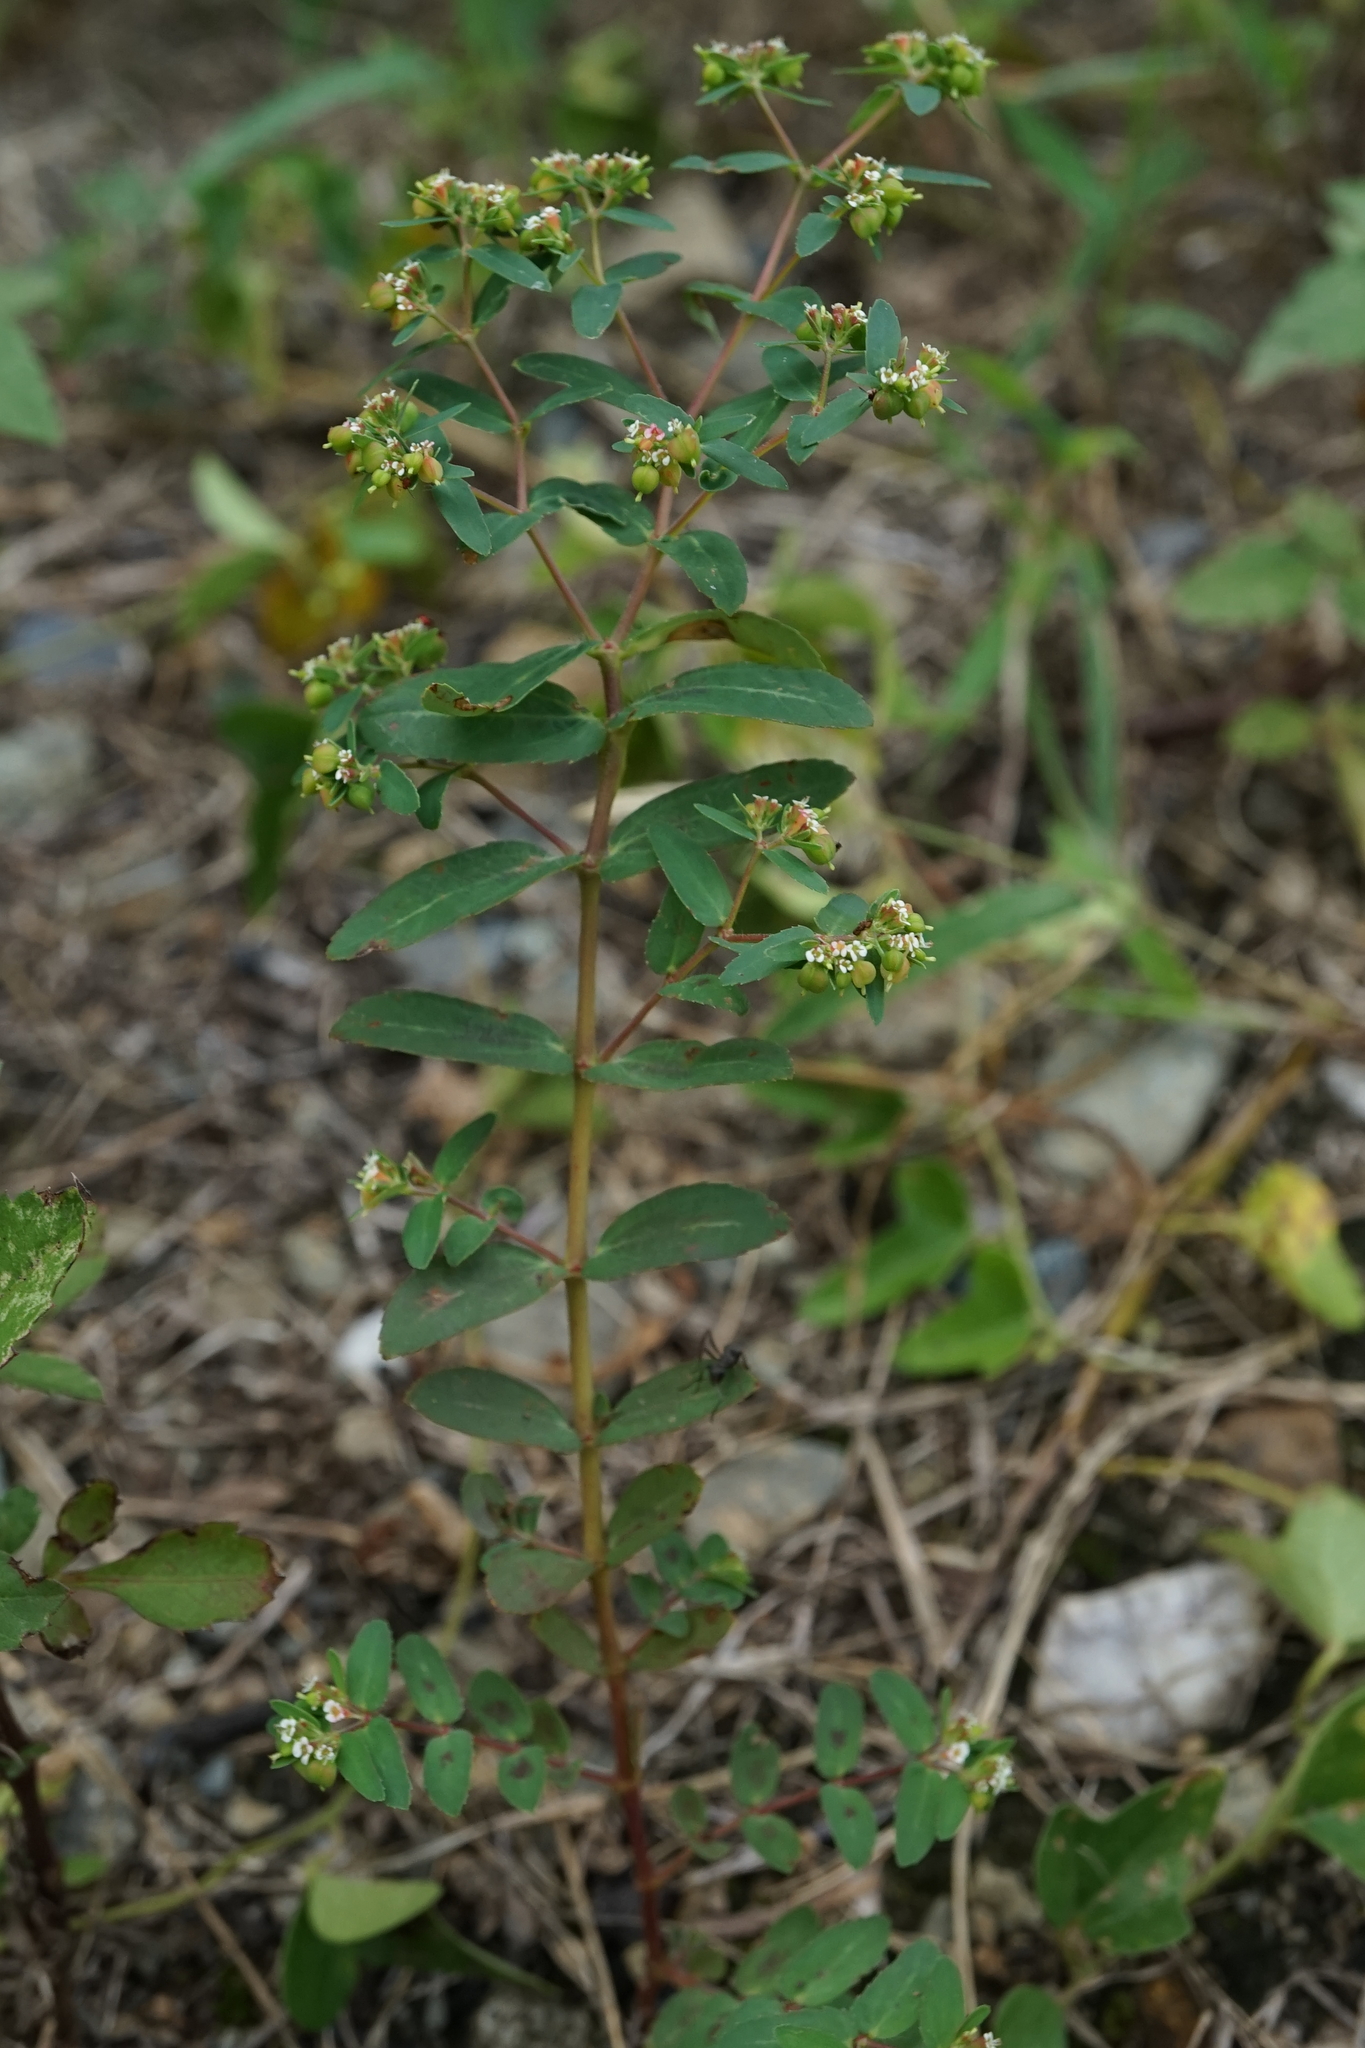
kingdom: Plantae
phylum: Tracheophyta
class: Magnoliopsida
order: Malpighiales
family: Euphorbiaceae
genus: Euphorbia
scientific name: Euphorbia nutans
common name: Eyebane
